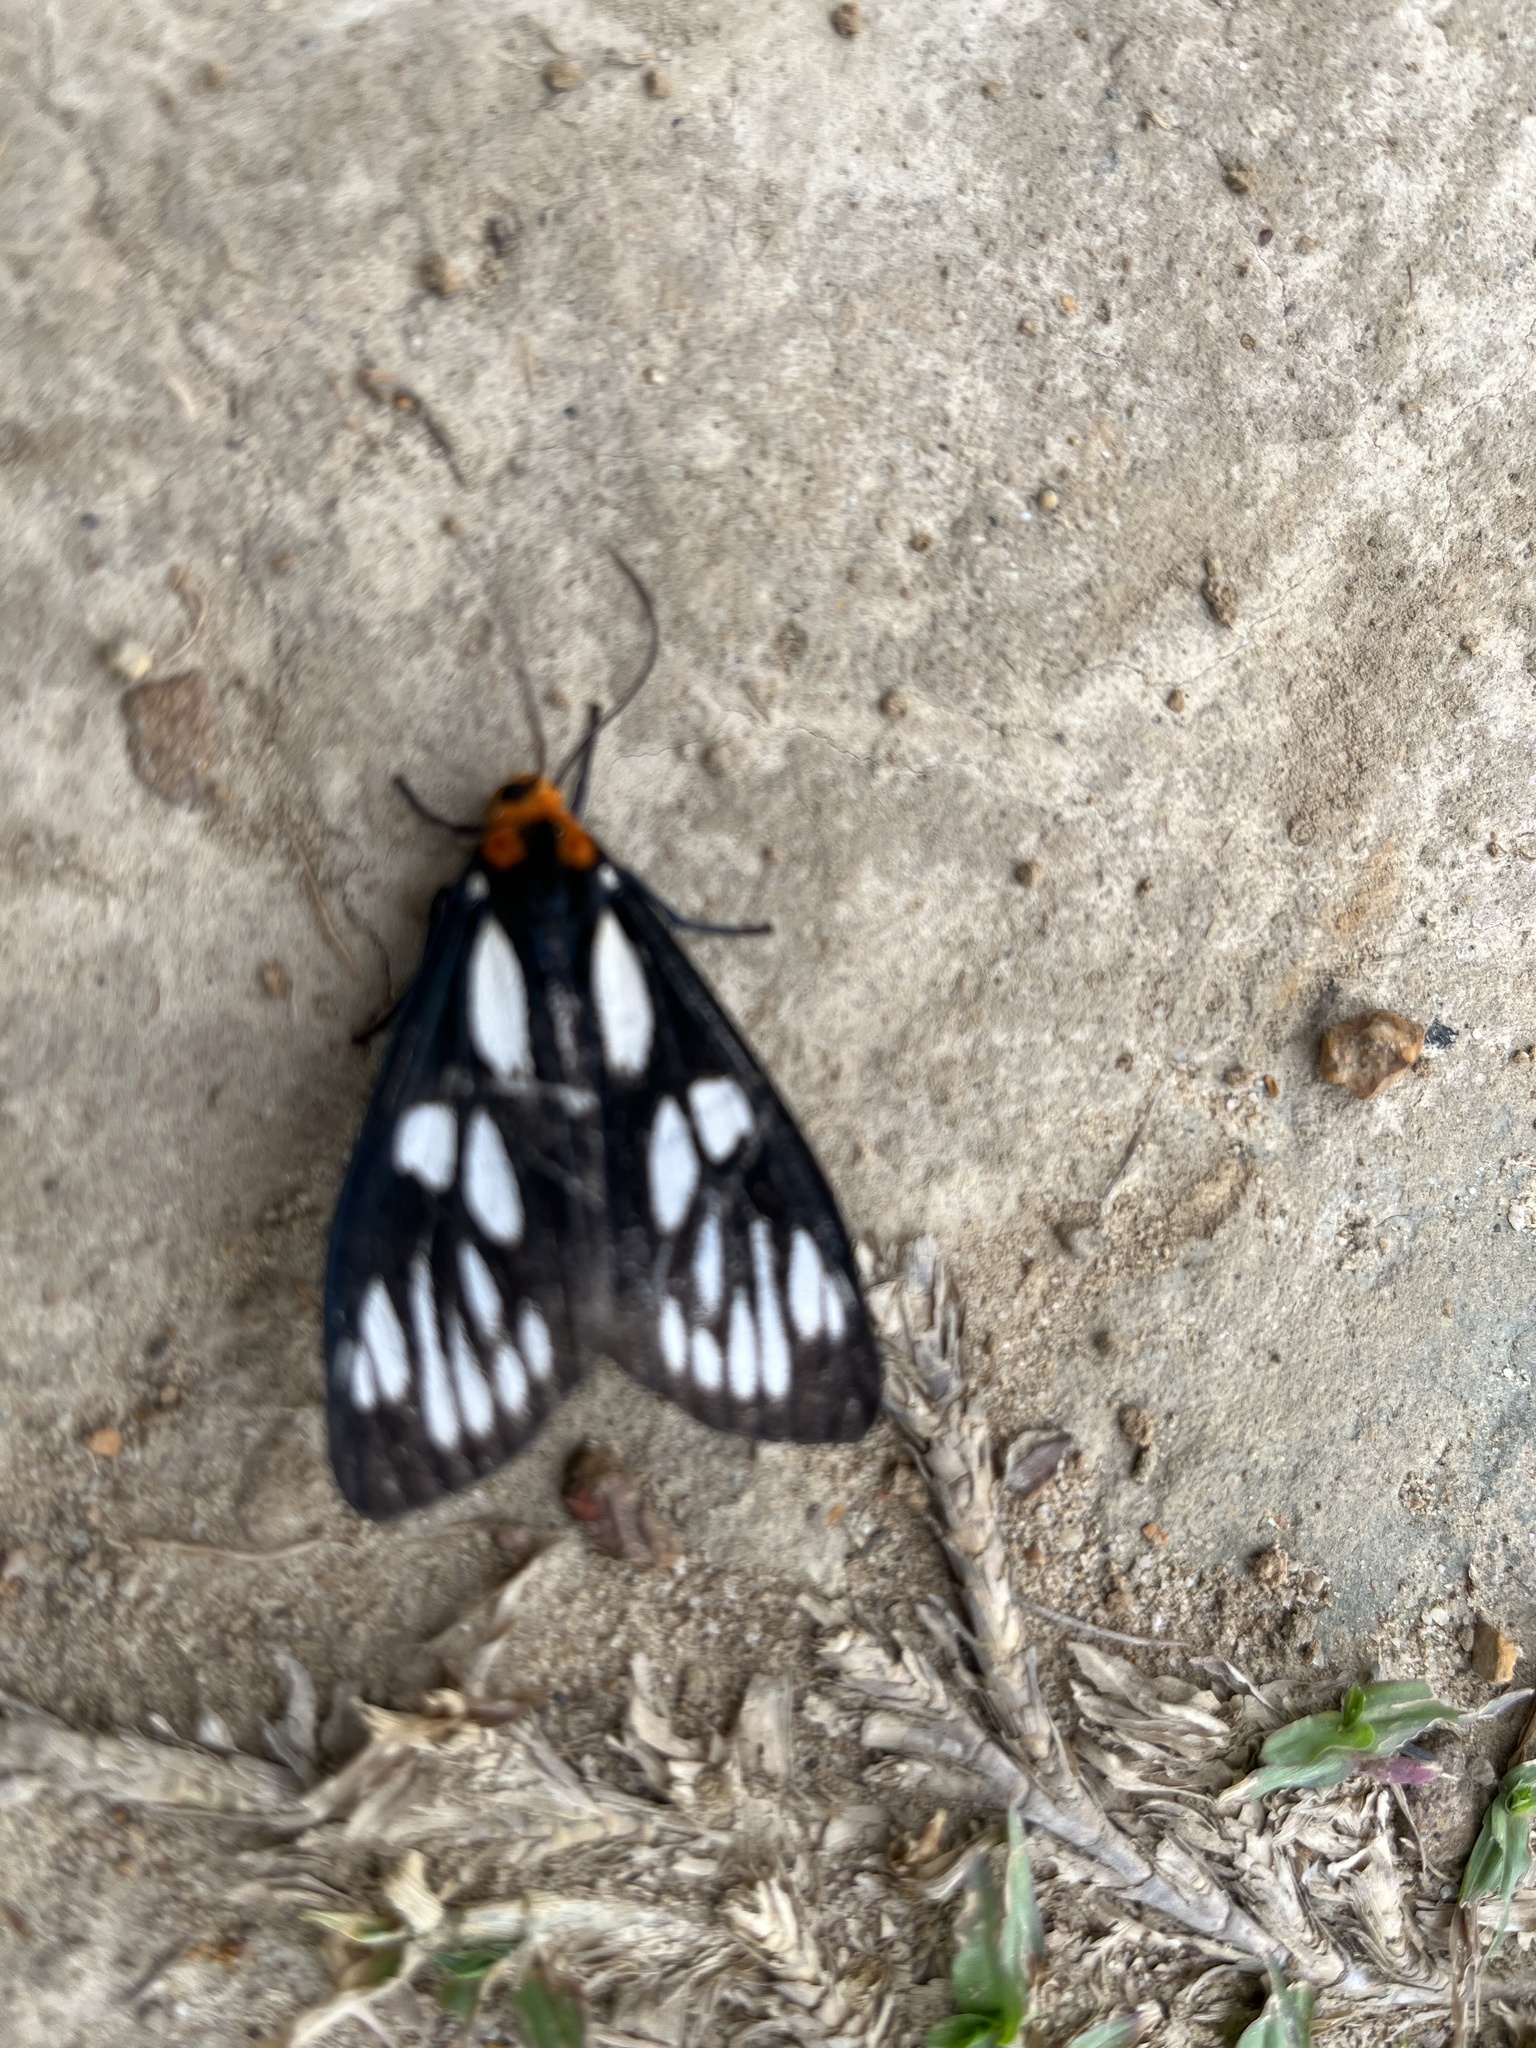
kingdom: Animalia
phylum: Arthropoda
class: Insecta
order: Lepidoptera
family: Erebidae
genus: Macrobrochis
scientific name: Macrobrochis gigas
